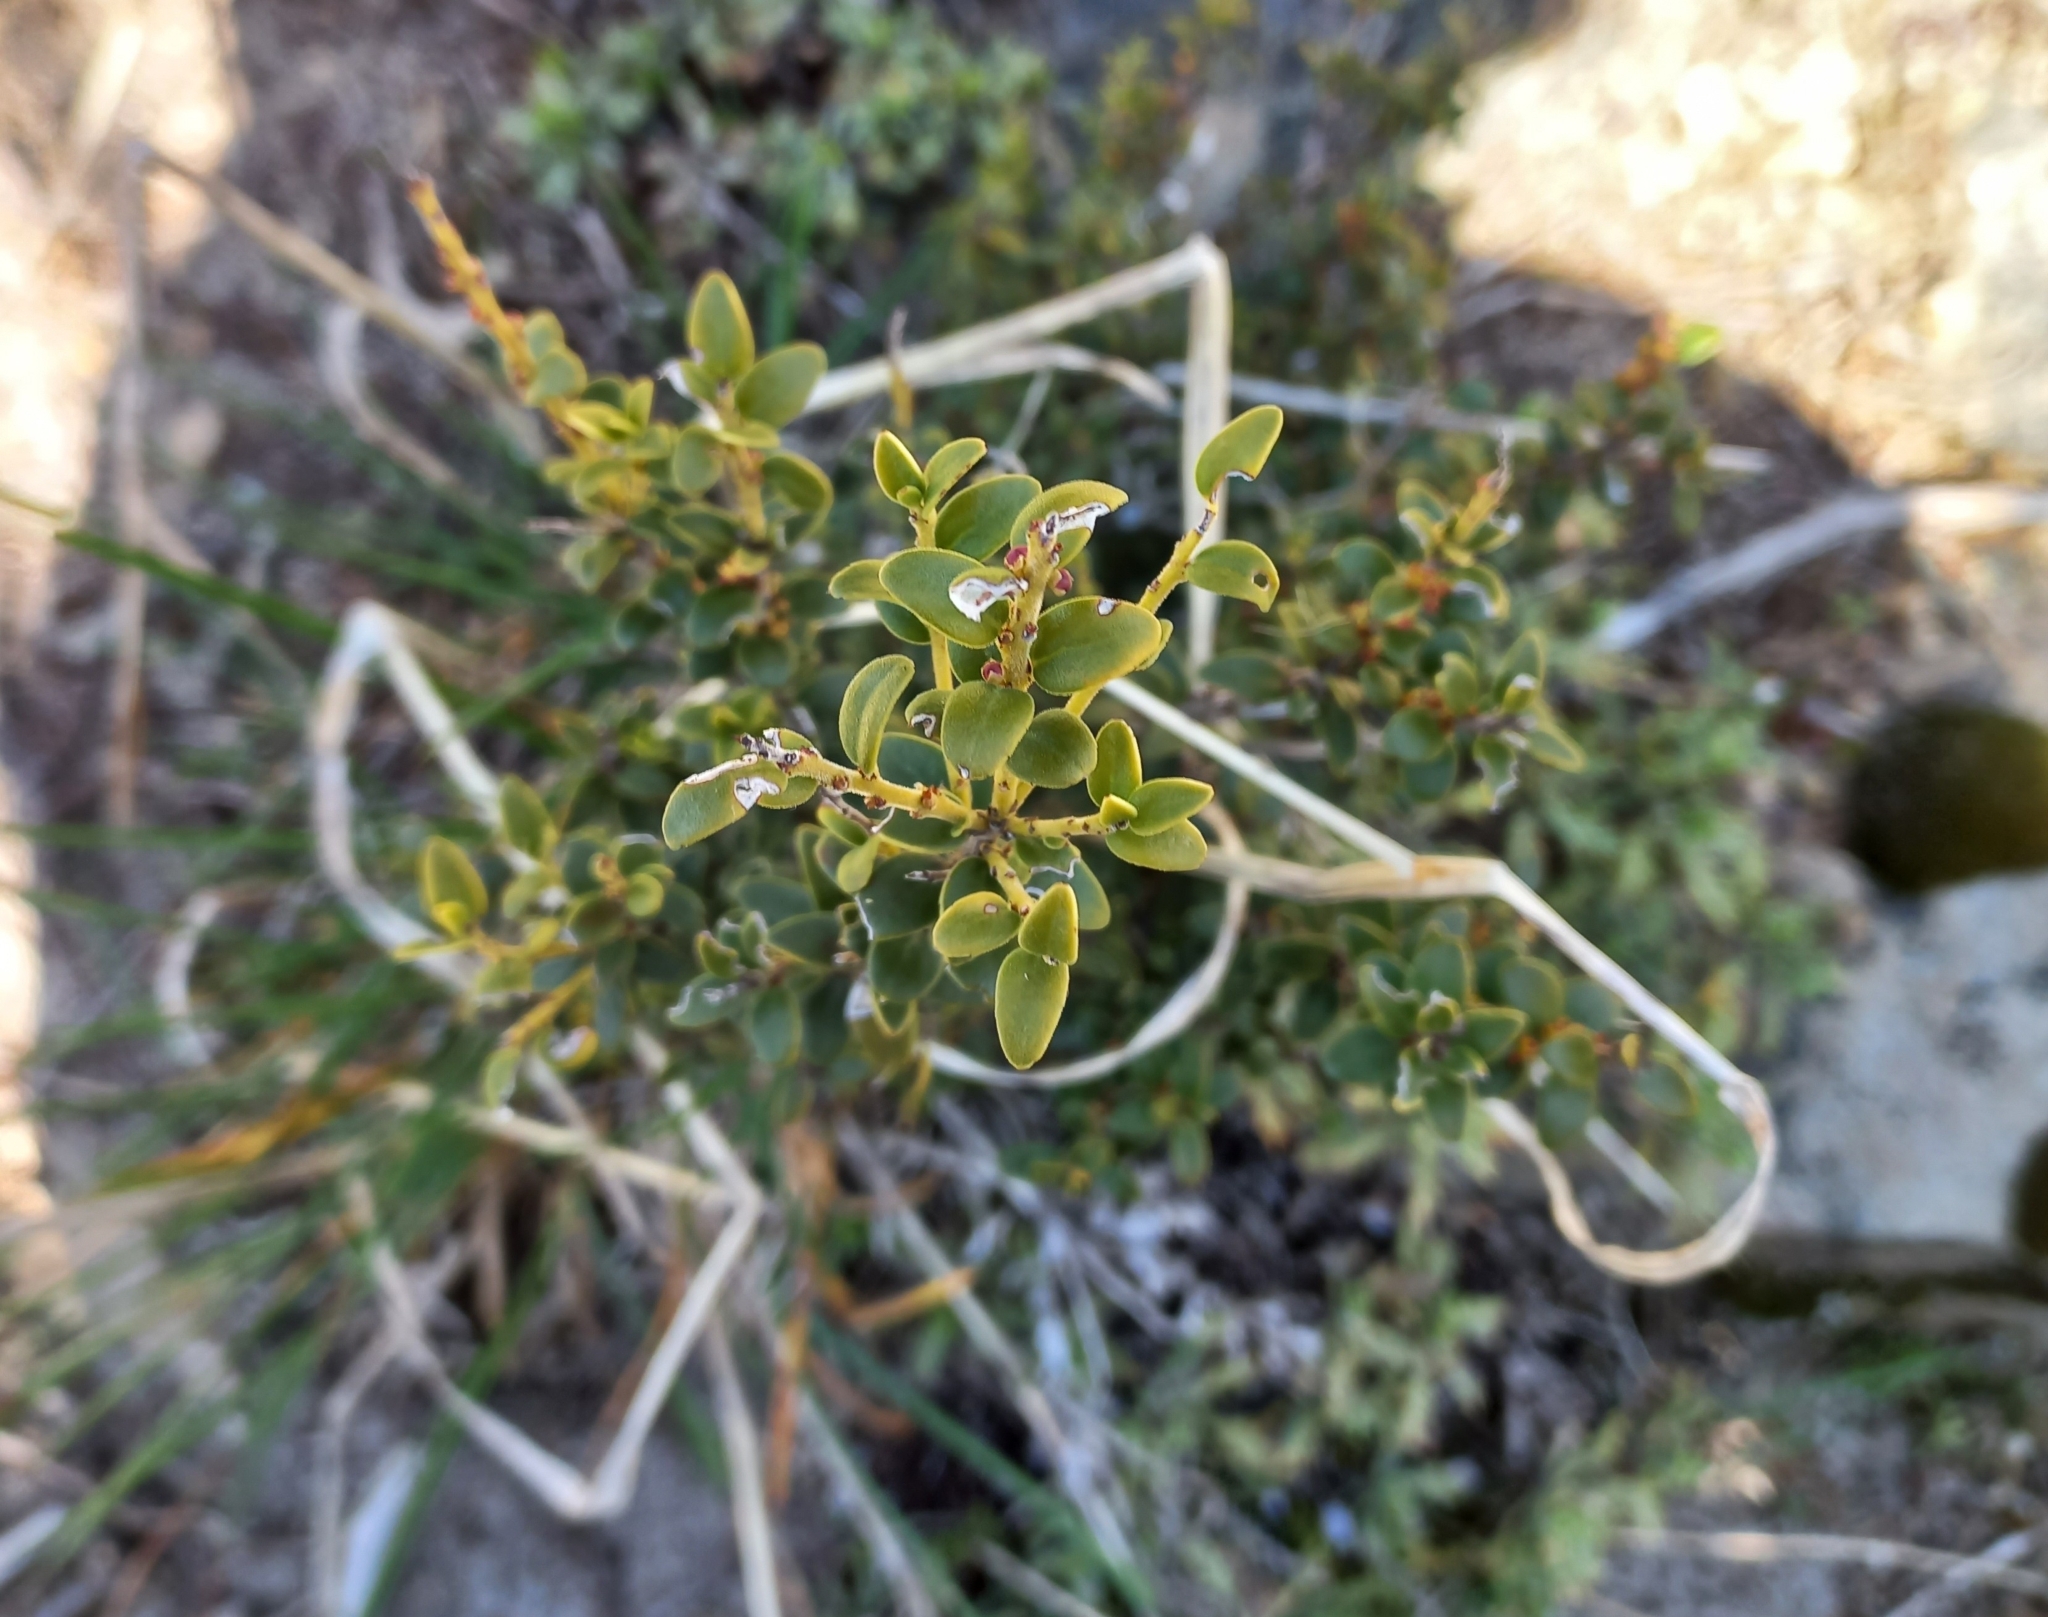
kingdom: Plantae
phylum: Tracheophyta
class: Magnoliopsida
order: Celastrales
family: Celastraceae
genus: Maytenus
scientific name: Maytenus chubutensis
